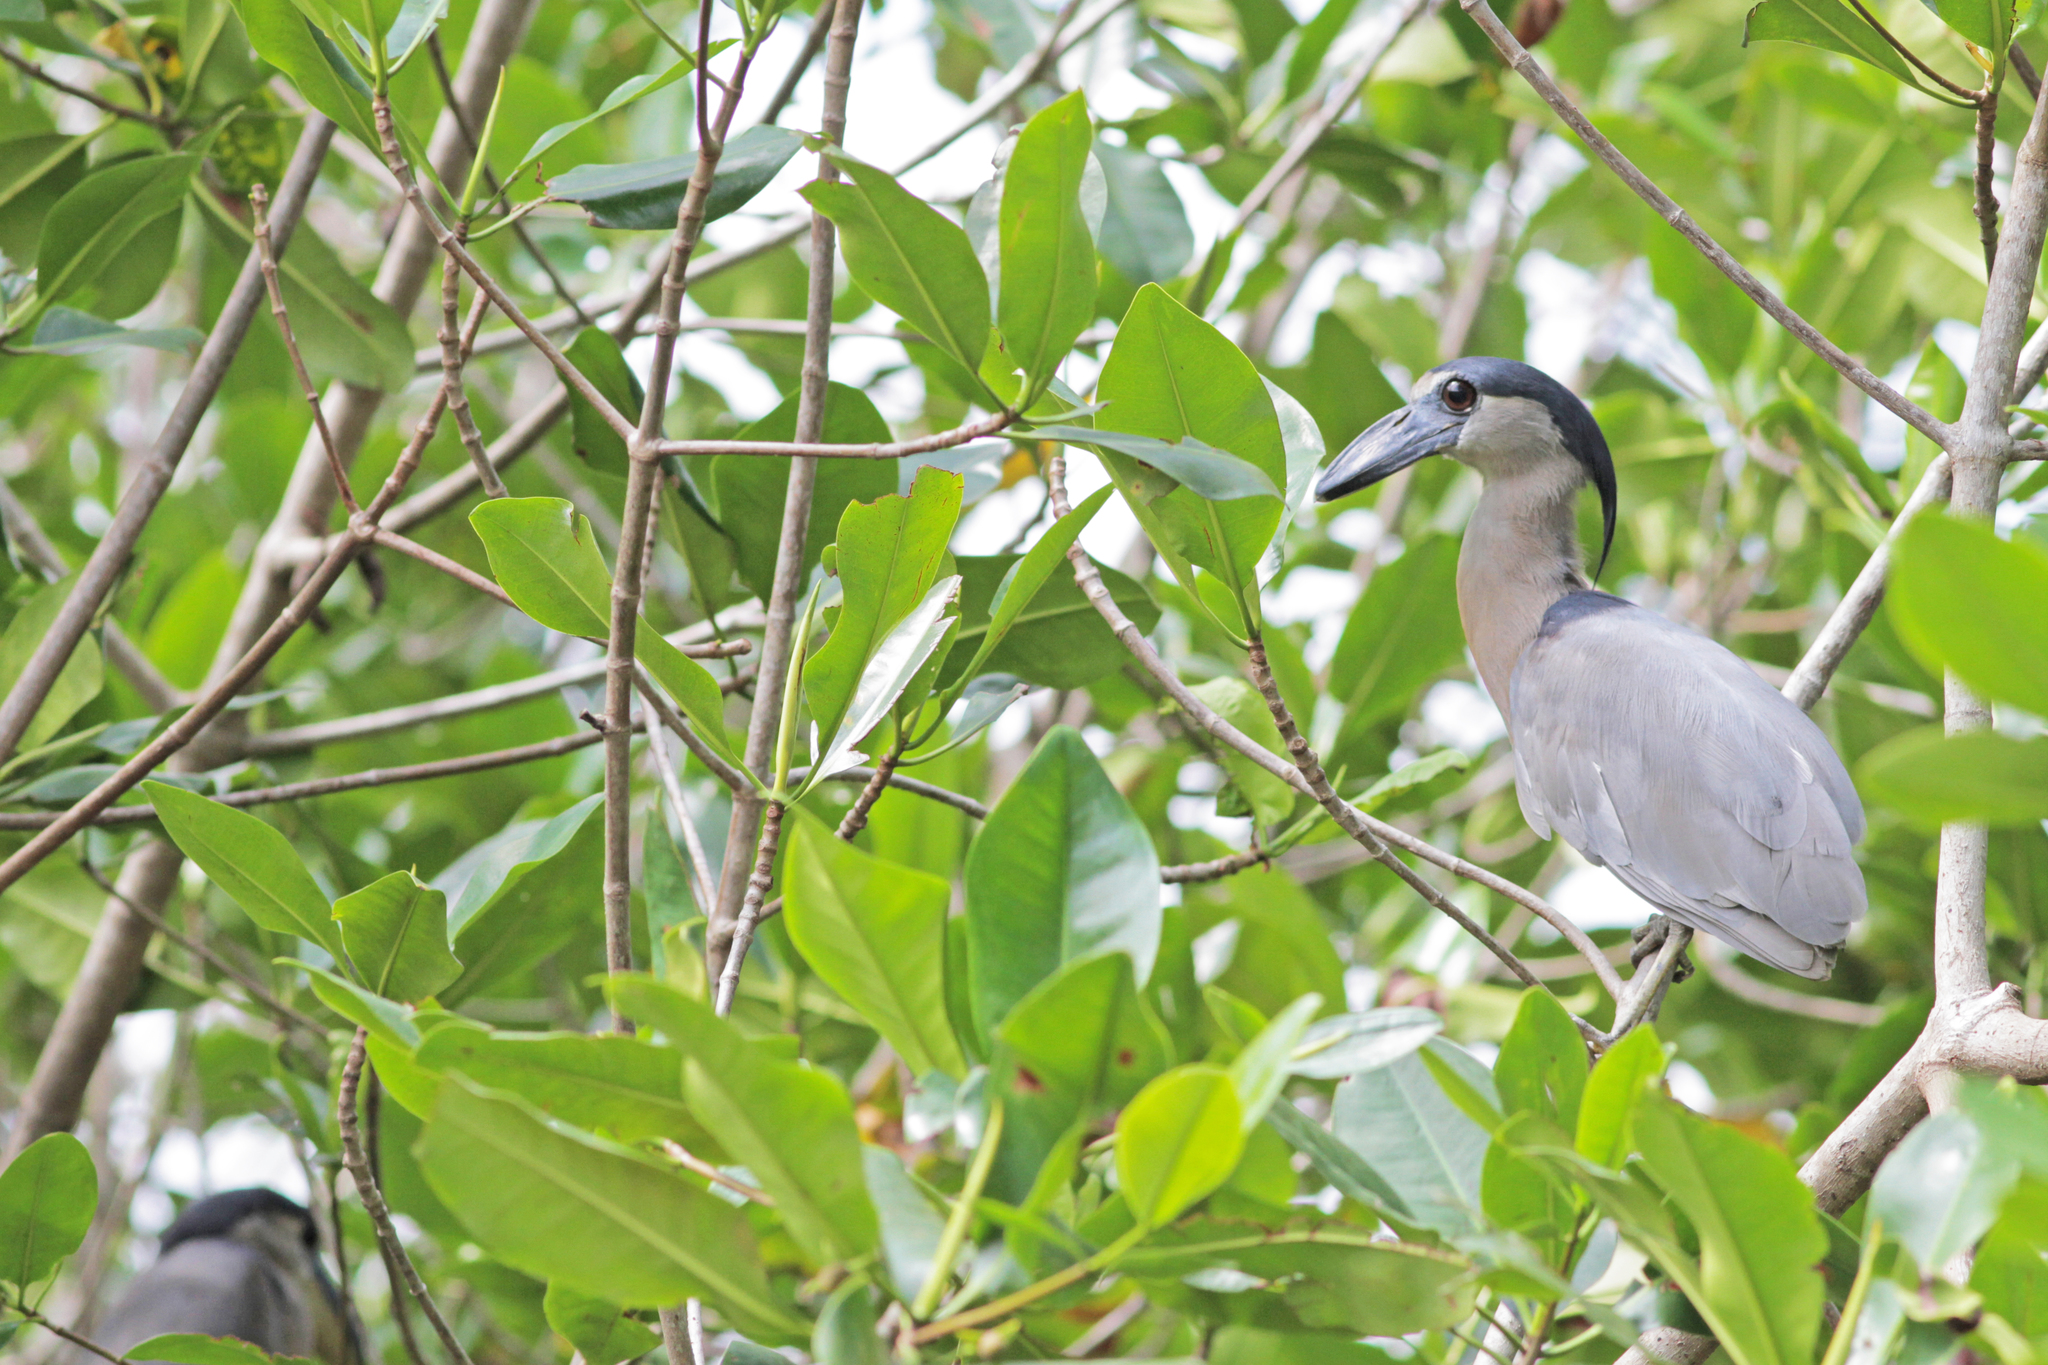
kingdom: Animalia
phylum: Chordata
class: Aves
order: Pelecaniformes
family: Ardeidae
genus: Cochlearius
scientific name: Cochlearius cochlearius
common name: Boat-billed heron
